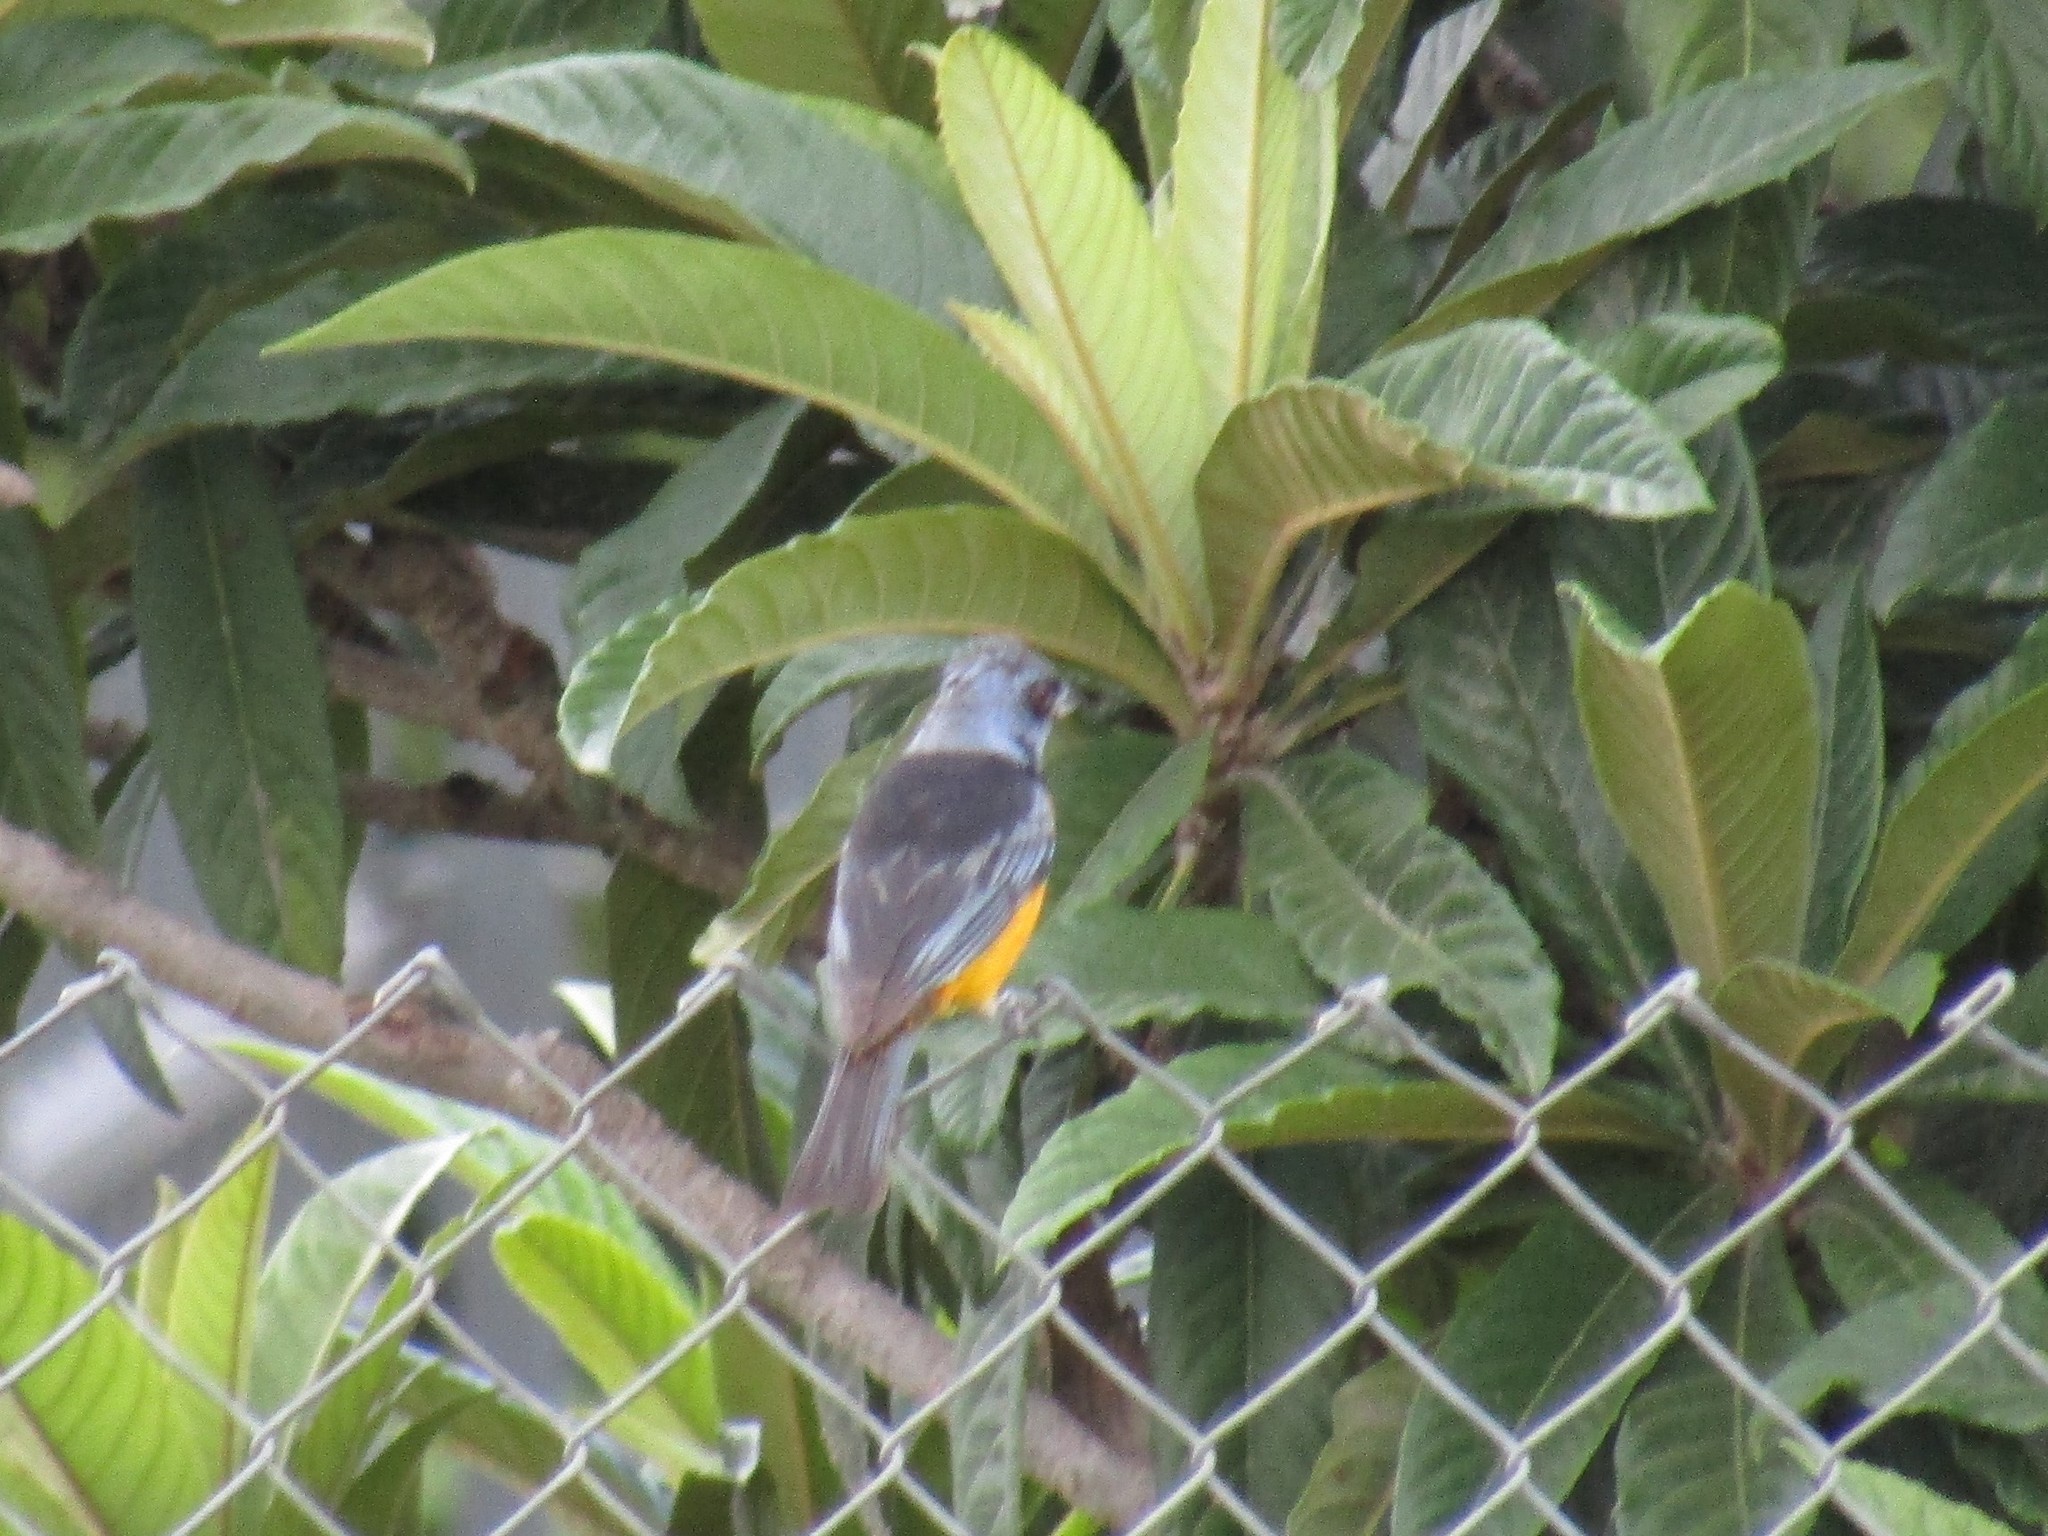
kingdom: Animalia
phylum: Chordata
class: Aves
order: Passeriformes
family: Thraupidae
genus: Rauenia
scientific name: Rauenia bonariensis
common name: Blue-and-yellow tanager
